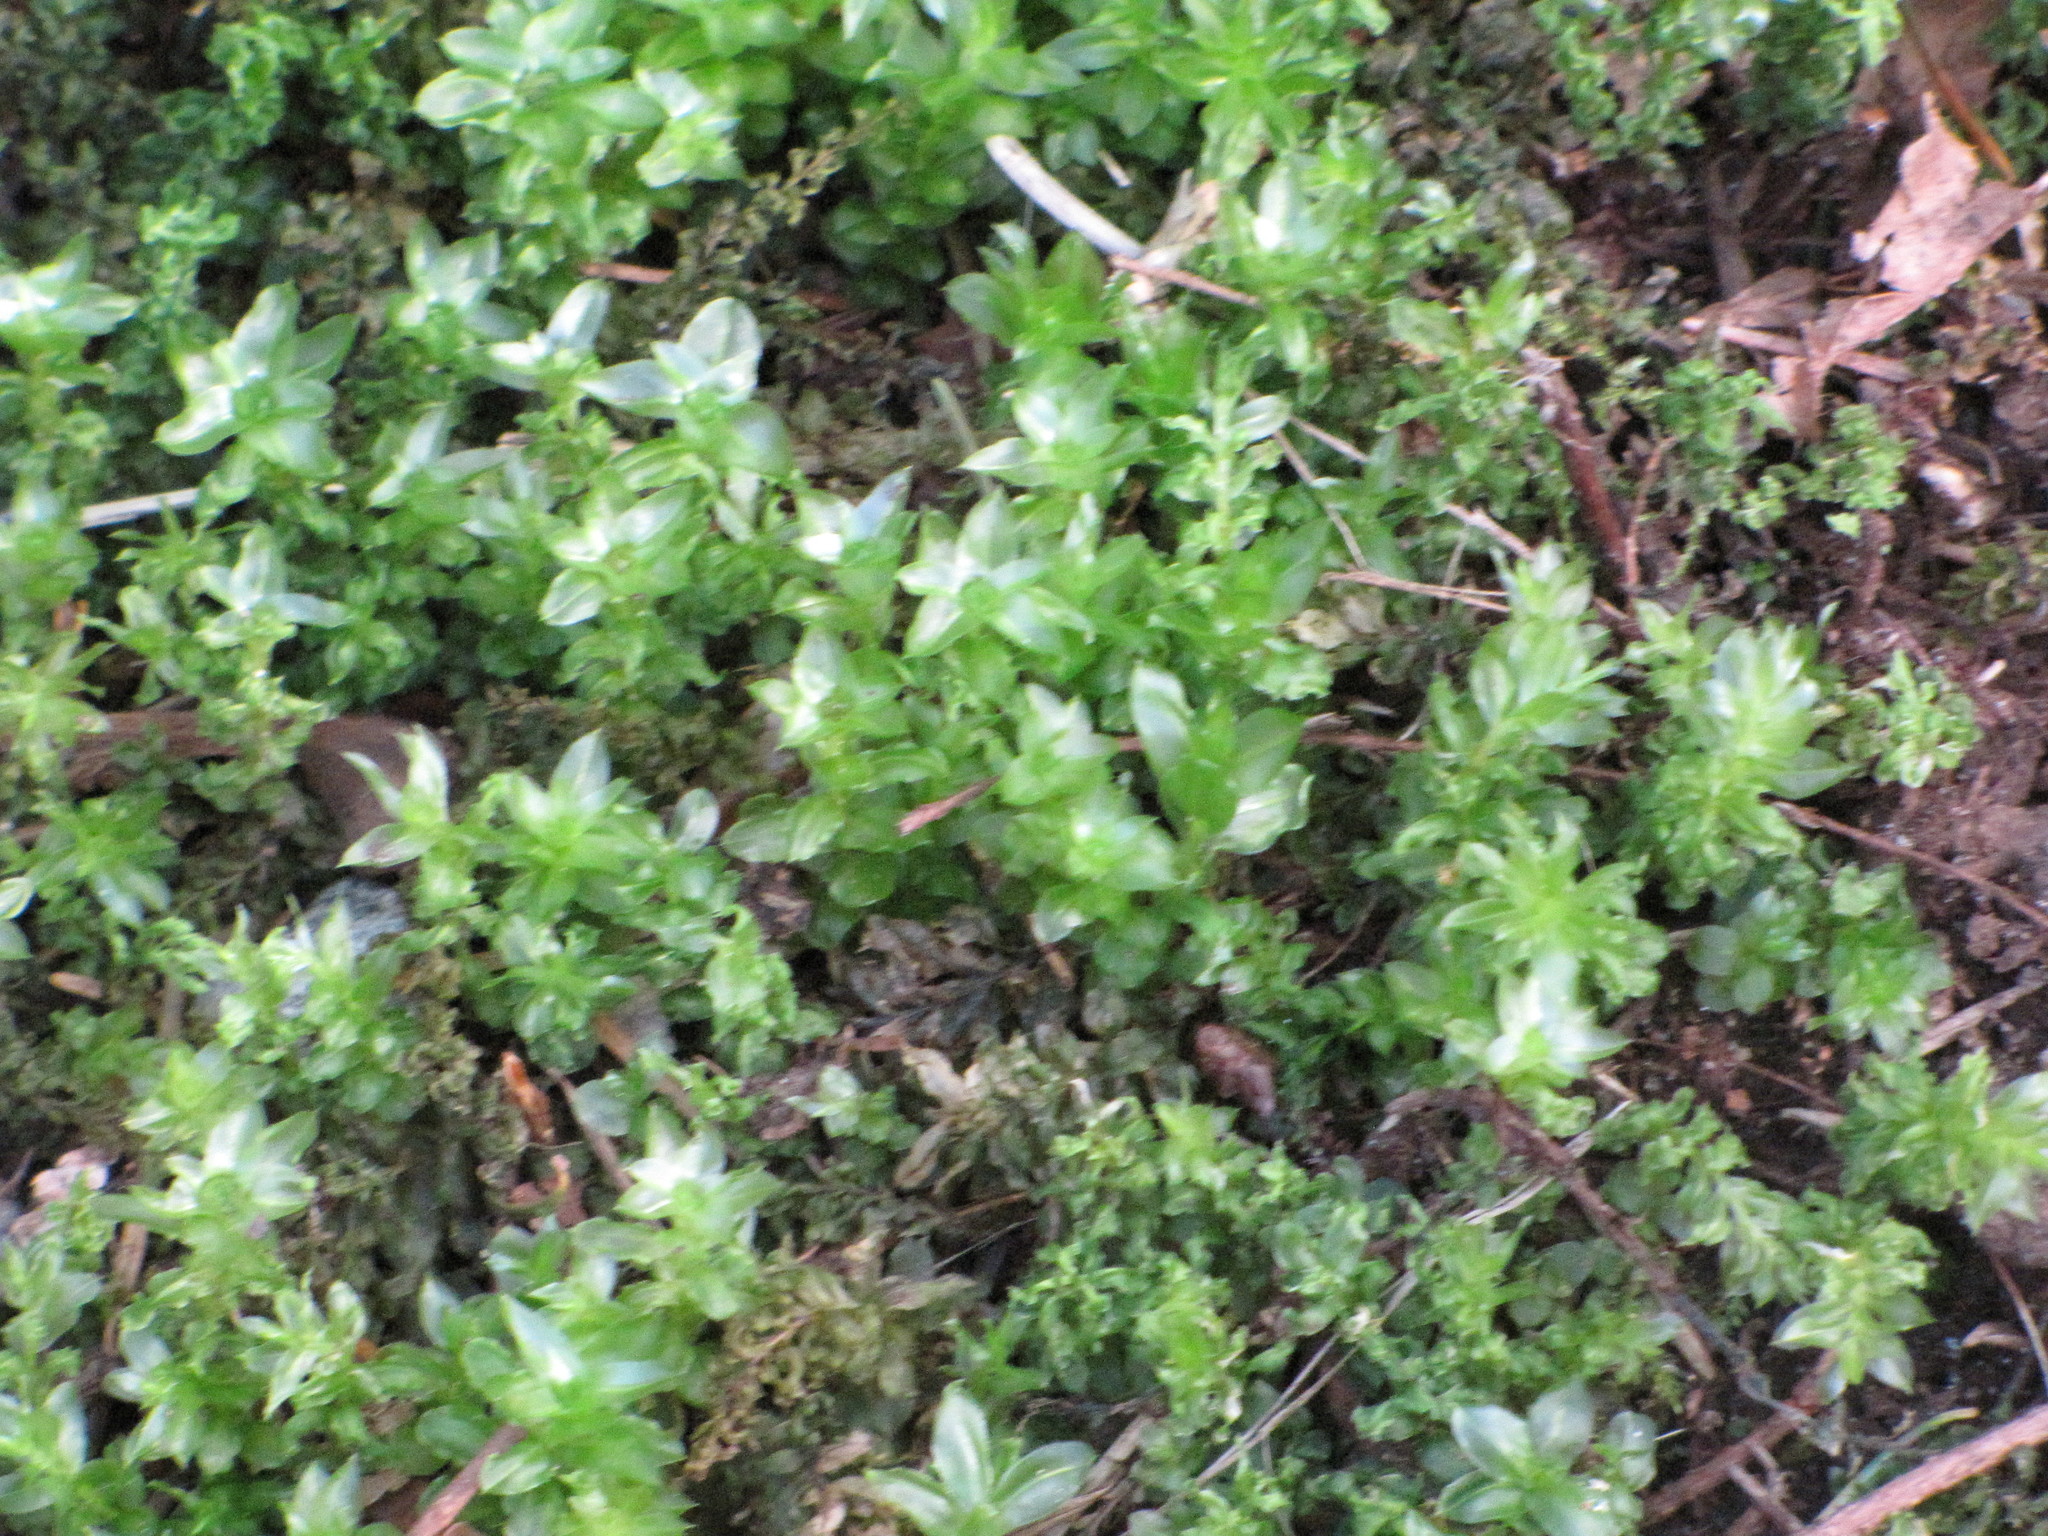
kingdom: Plantae
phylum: Bryophyta
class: Bryopsida
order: Bryales
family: Mniaceae
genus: Plagiomnium
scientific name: Plagiomnium insigne
